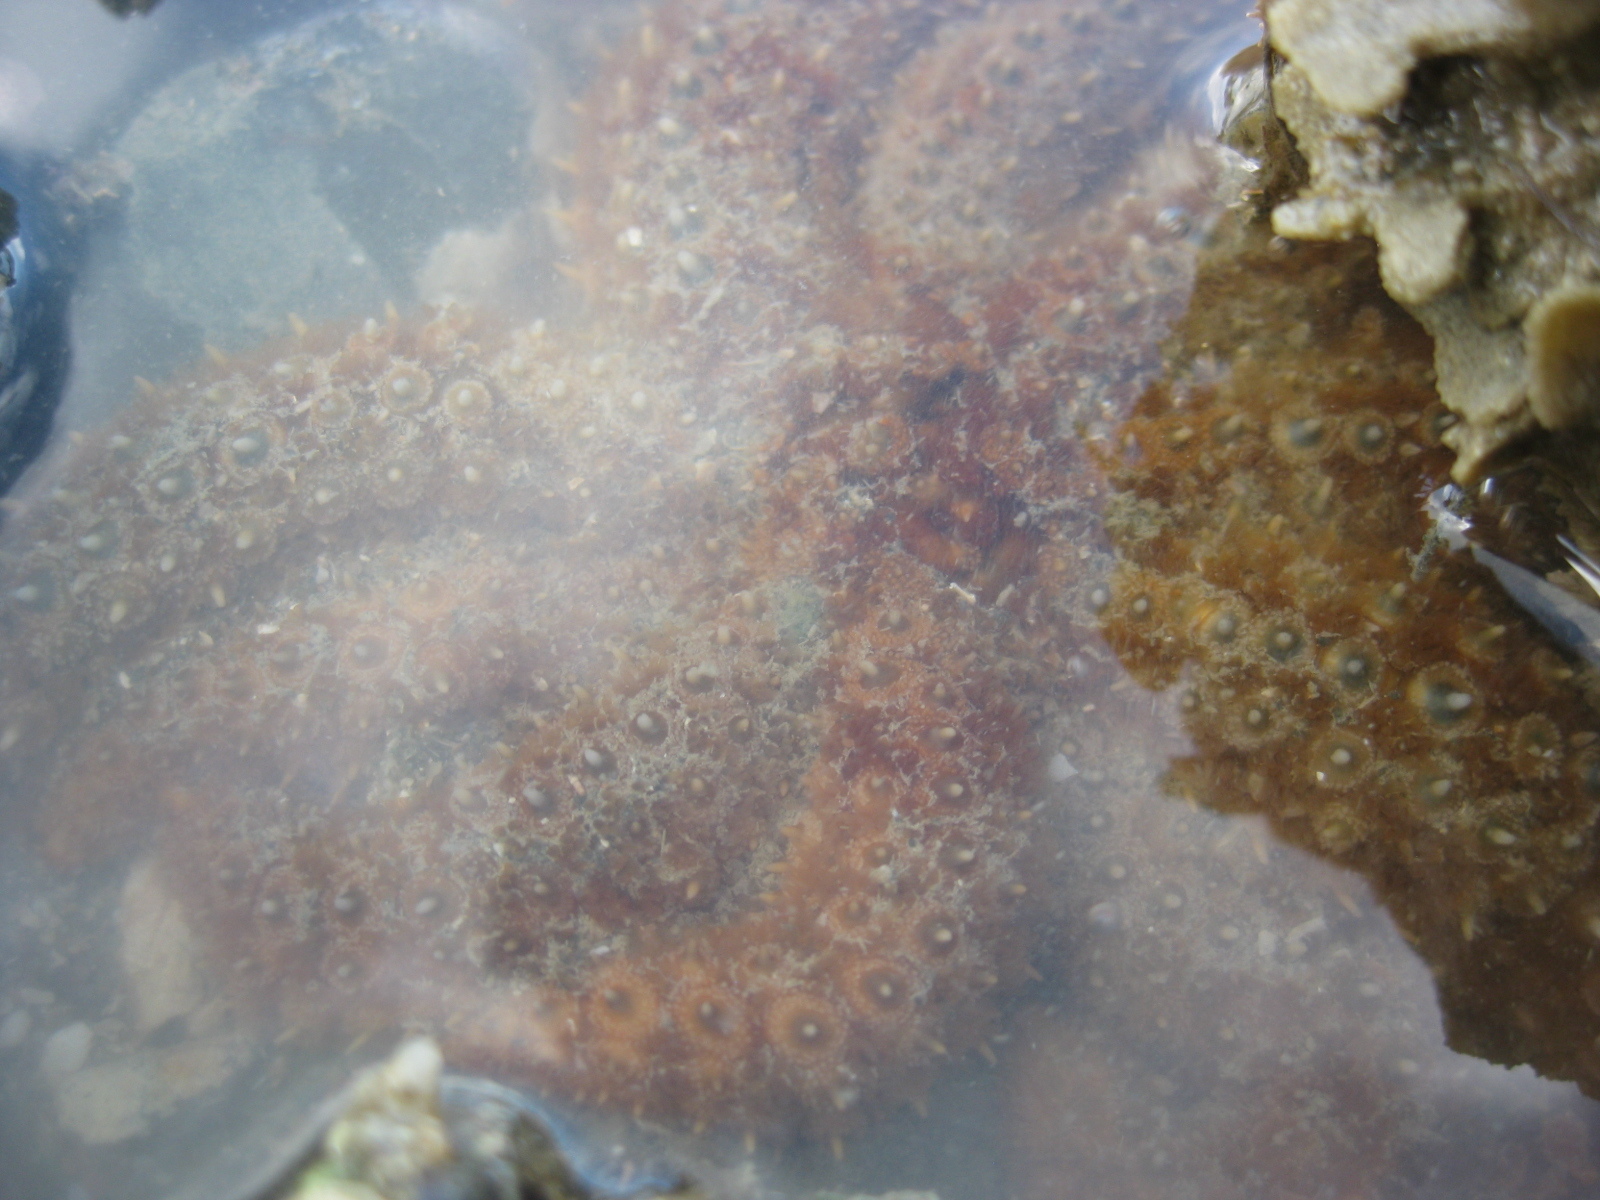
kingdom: Animalia
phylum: Echinodermata
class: Asteroidea
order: Forcipulatida
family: Asteriidae
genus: Coscinasterias
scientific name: Coscinasterias muricata
